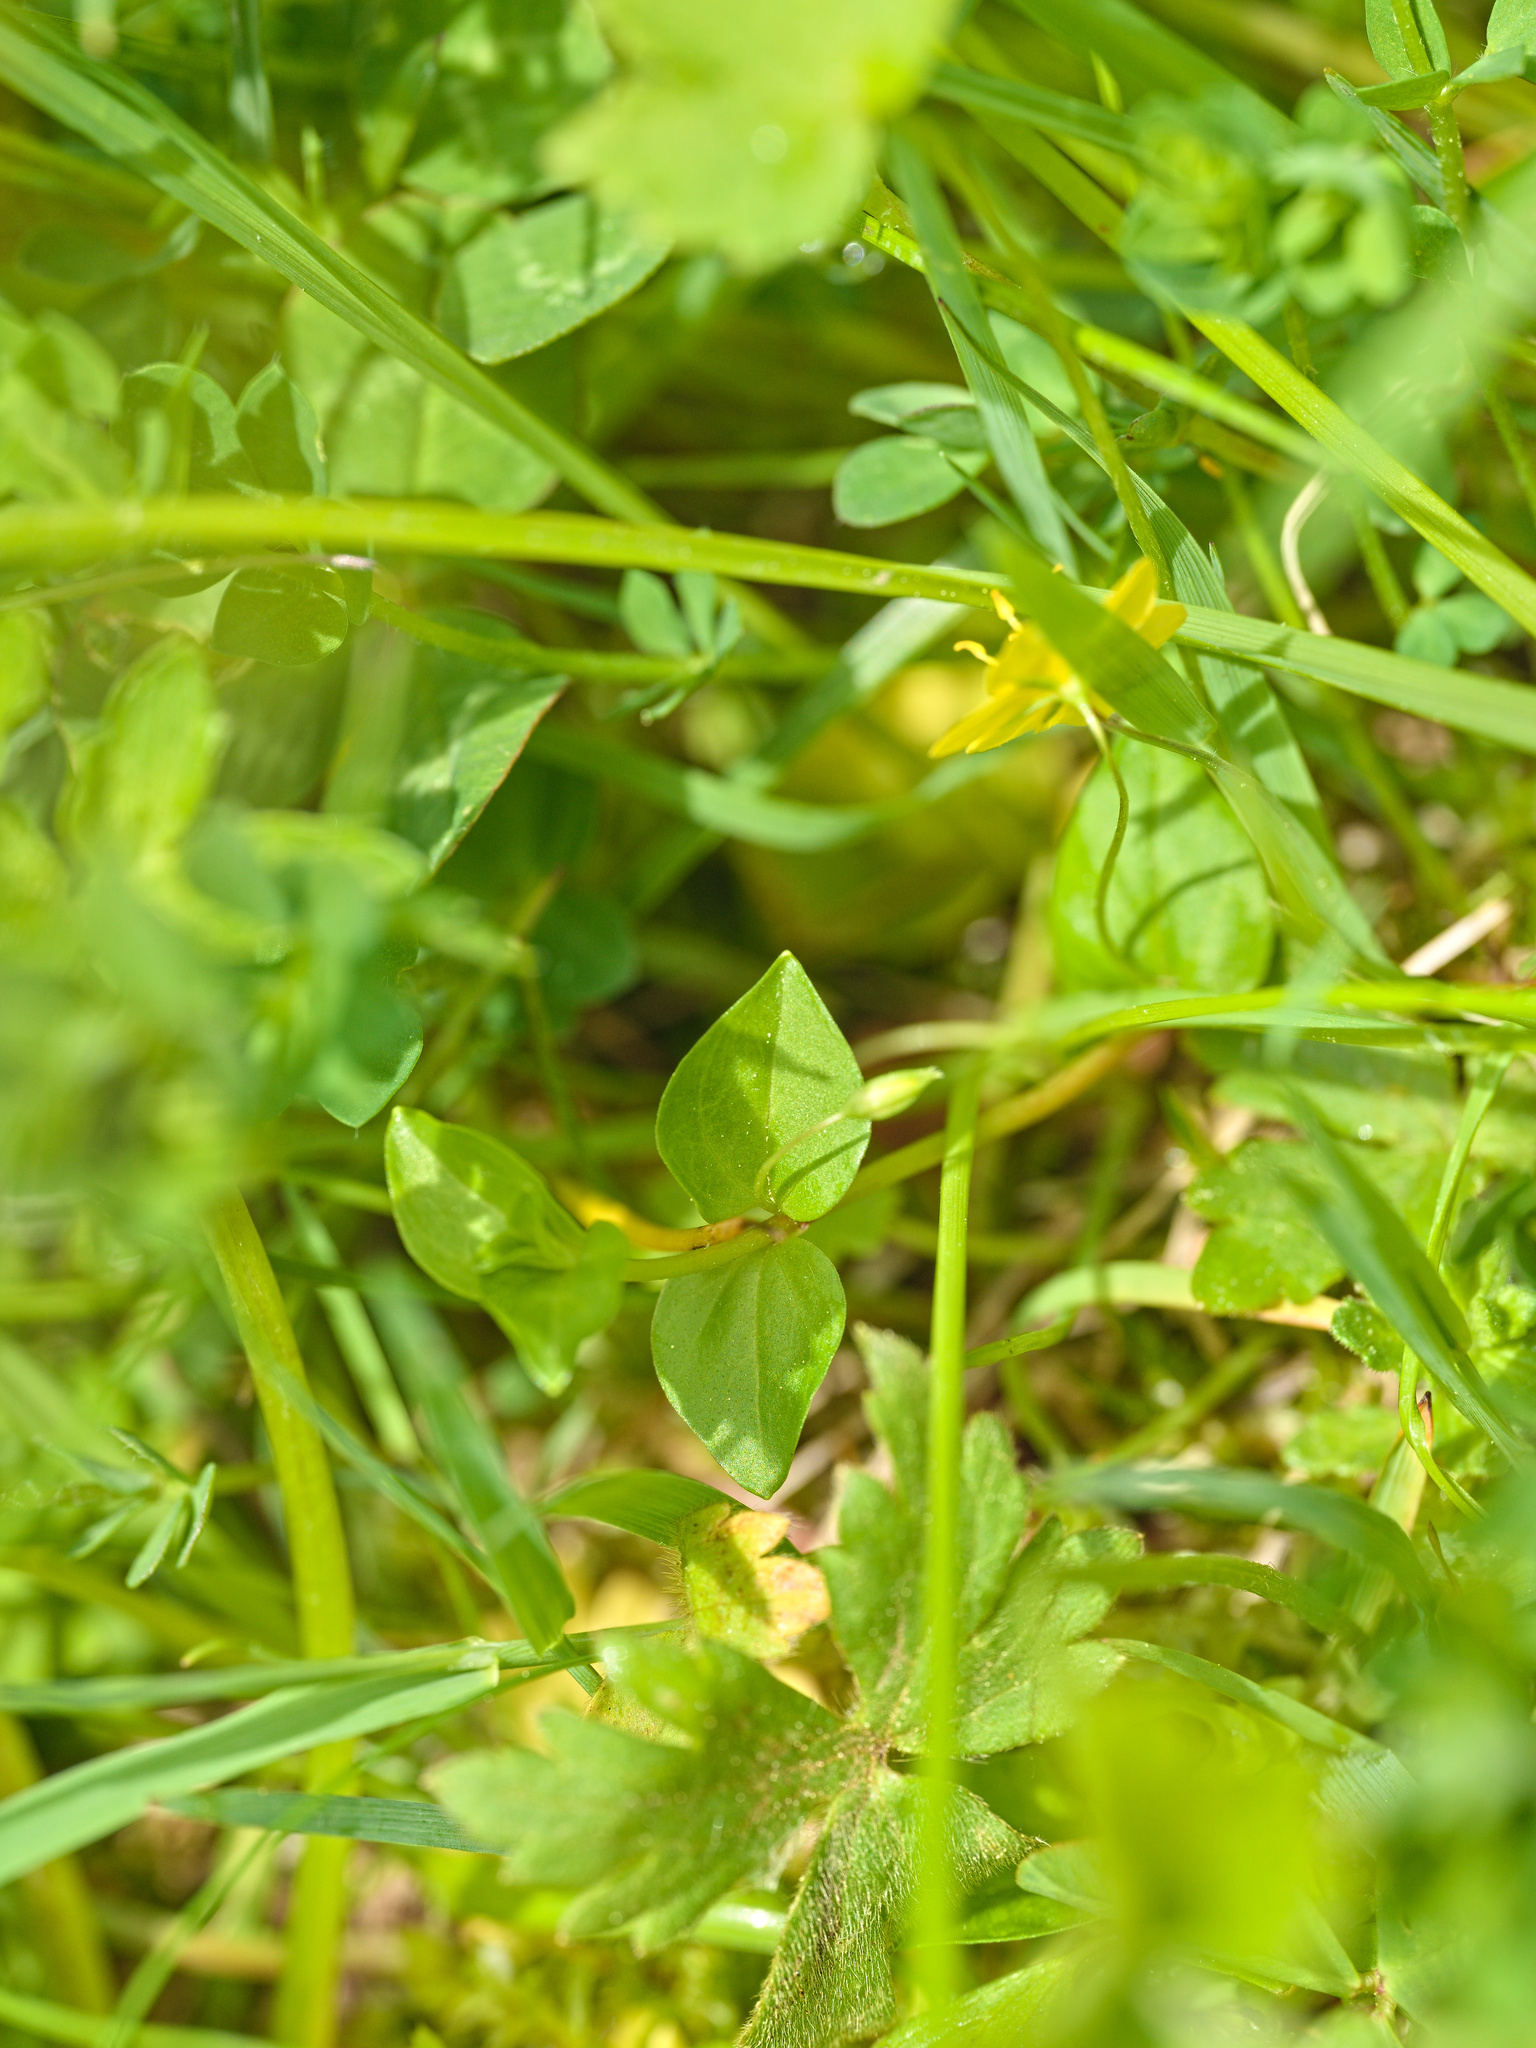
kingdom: Plantae
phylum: Tracheophyta
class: Magnoliopsida
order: Ericales
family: Primulaceae
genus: Lysimachia
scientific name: Lysimachia nemorum
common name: Yellow pimpernel
